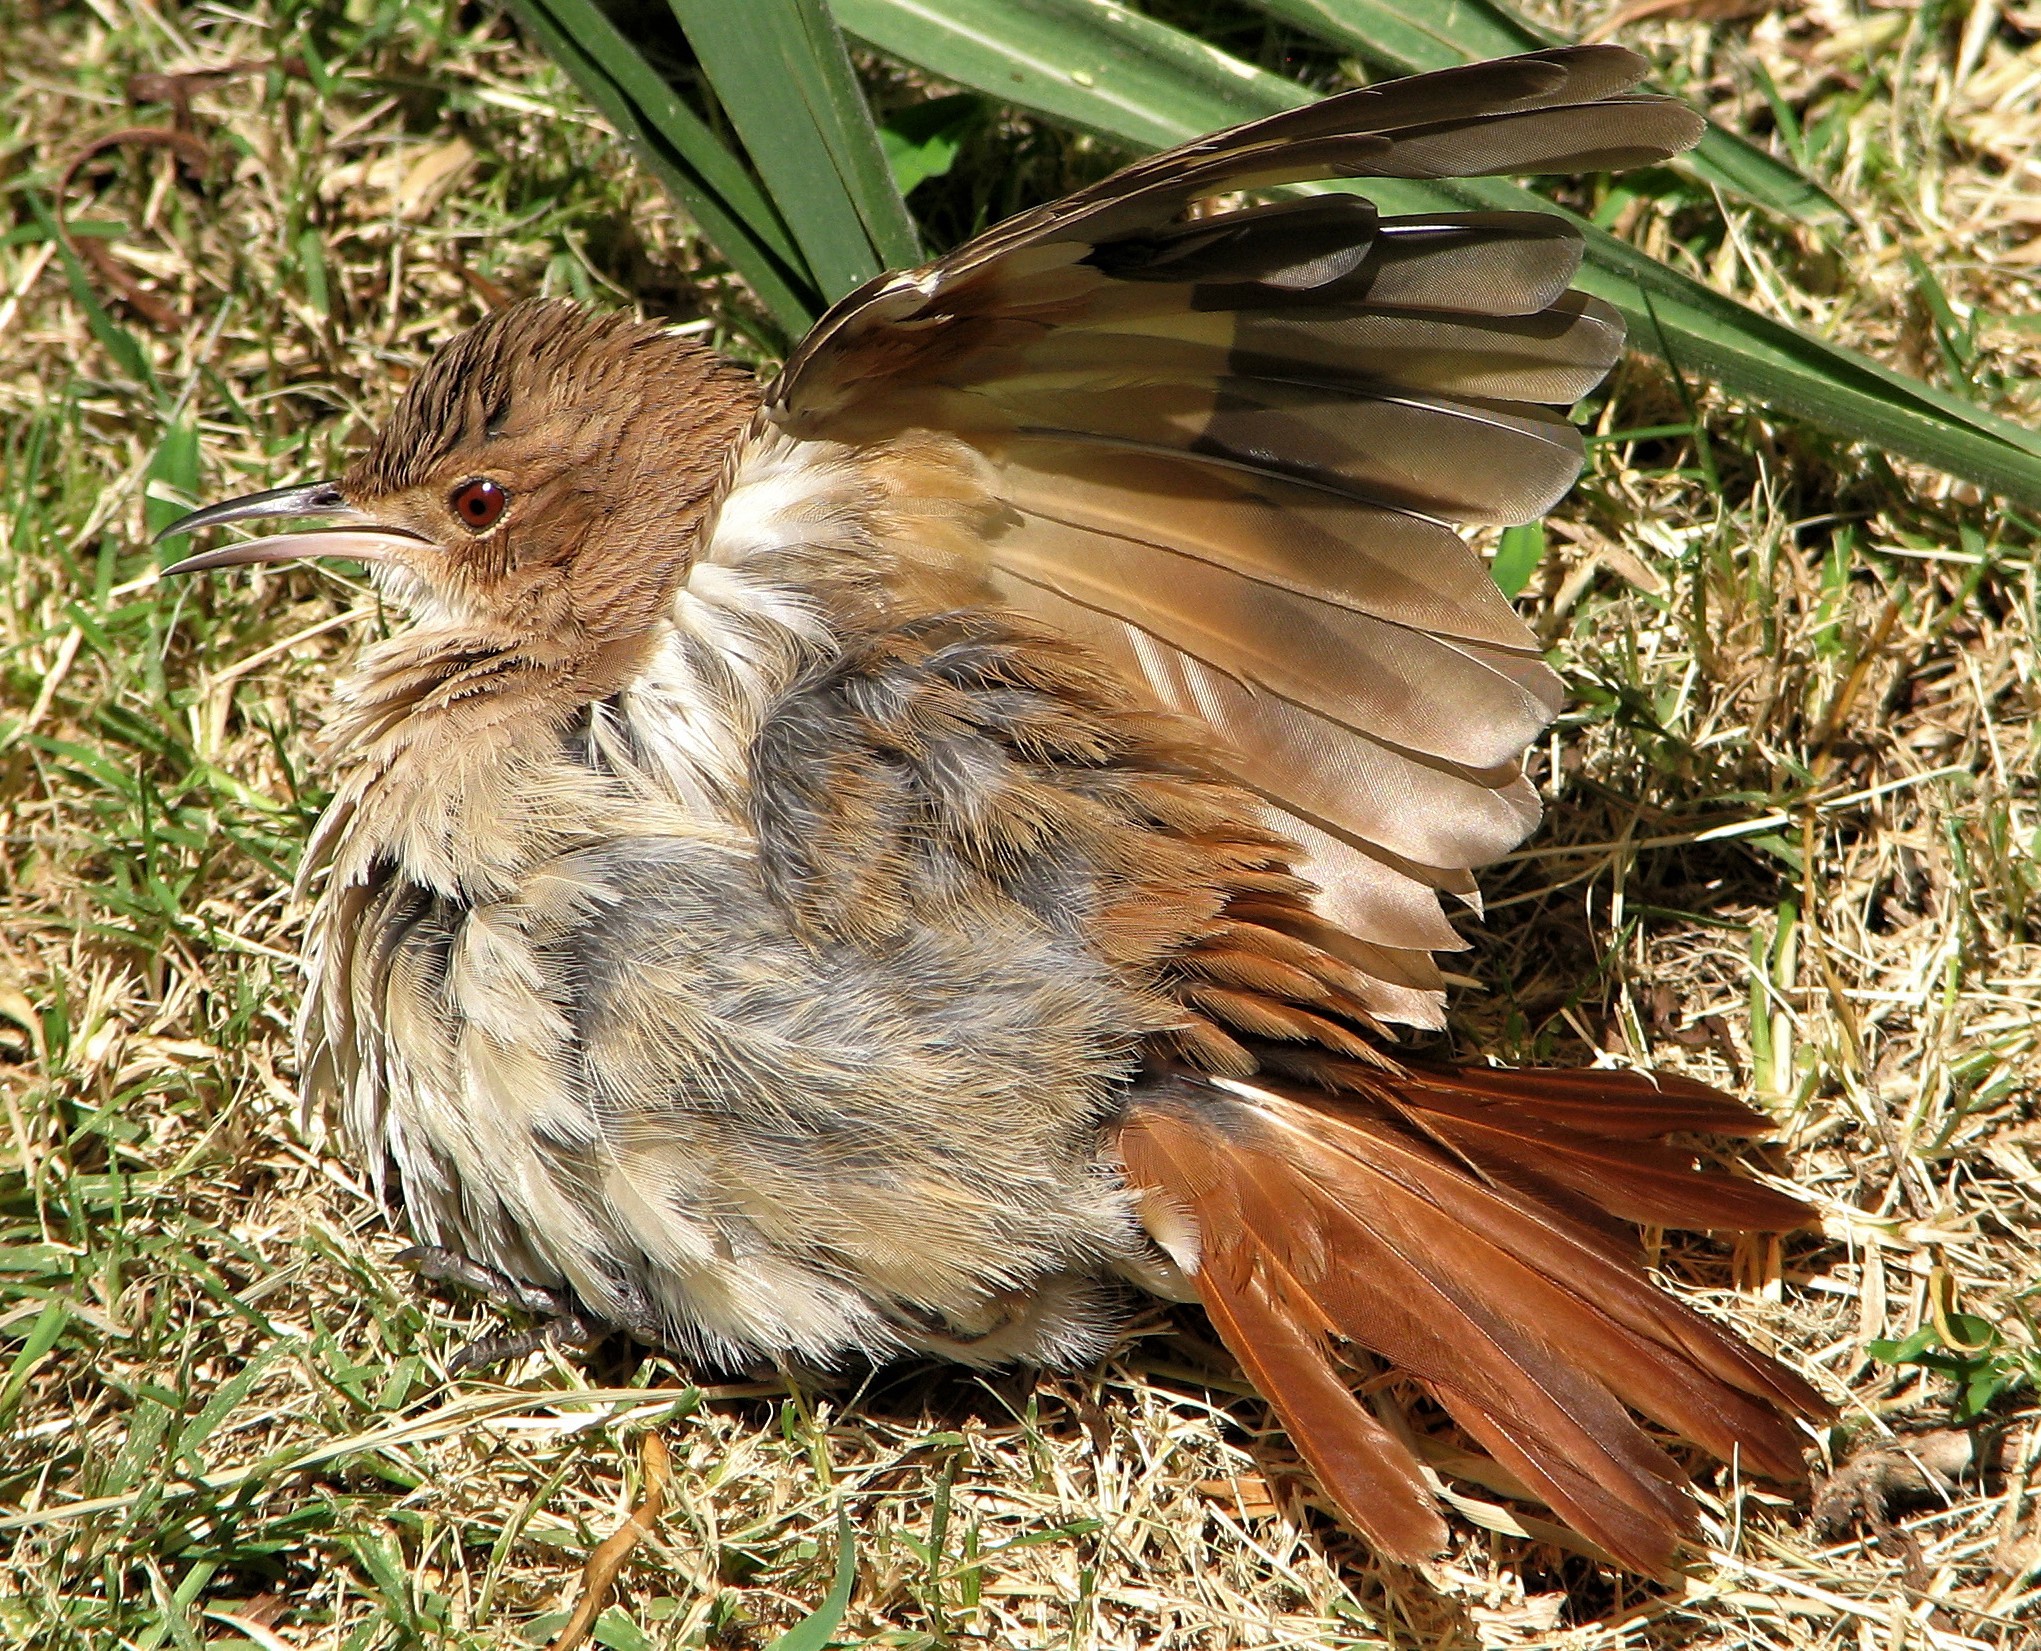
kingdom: Animalia
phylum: Chordata
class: Aves
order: Passeriformes
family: Furnariidae
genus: Furnarius
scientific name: Furnarius rufus
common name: Rufous hornero
